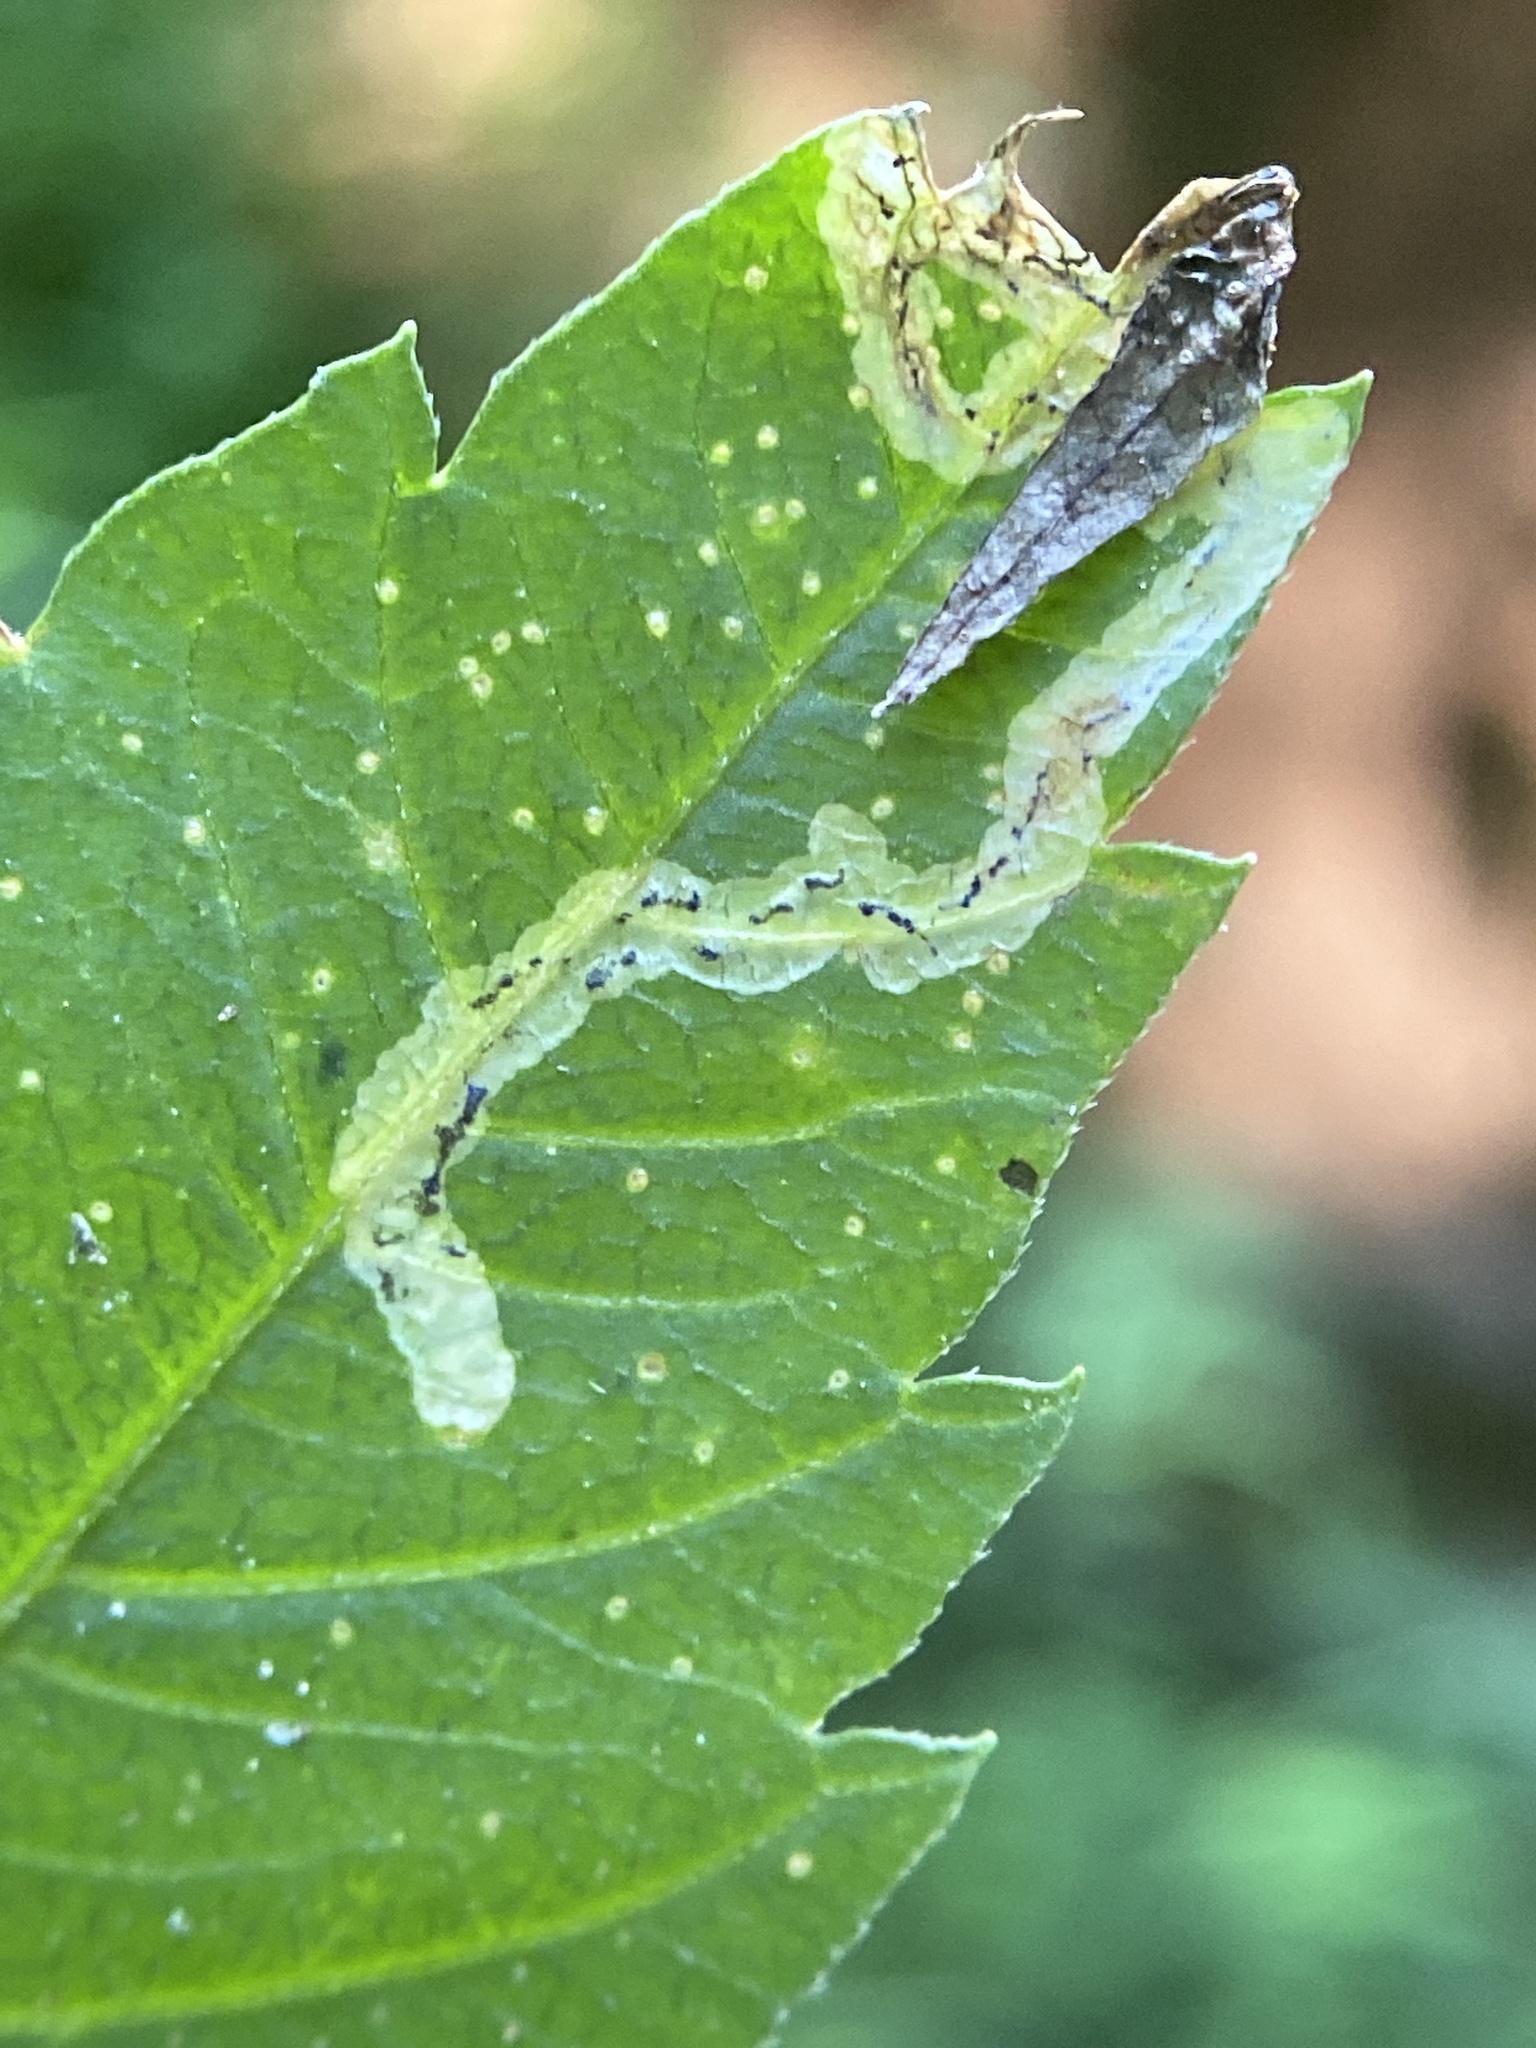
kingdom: Animalia
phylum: Arthropoda
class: Insecta
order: Diptera
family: Agromyzidae
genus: Liriomyza
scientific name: Liriomyza carphephori
